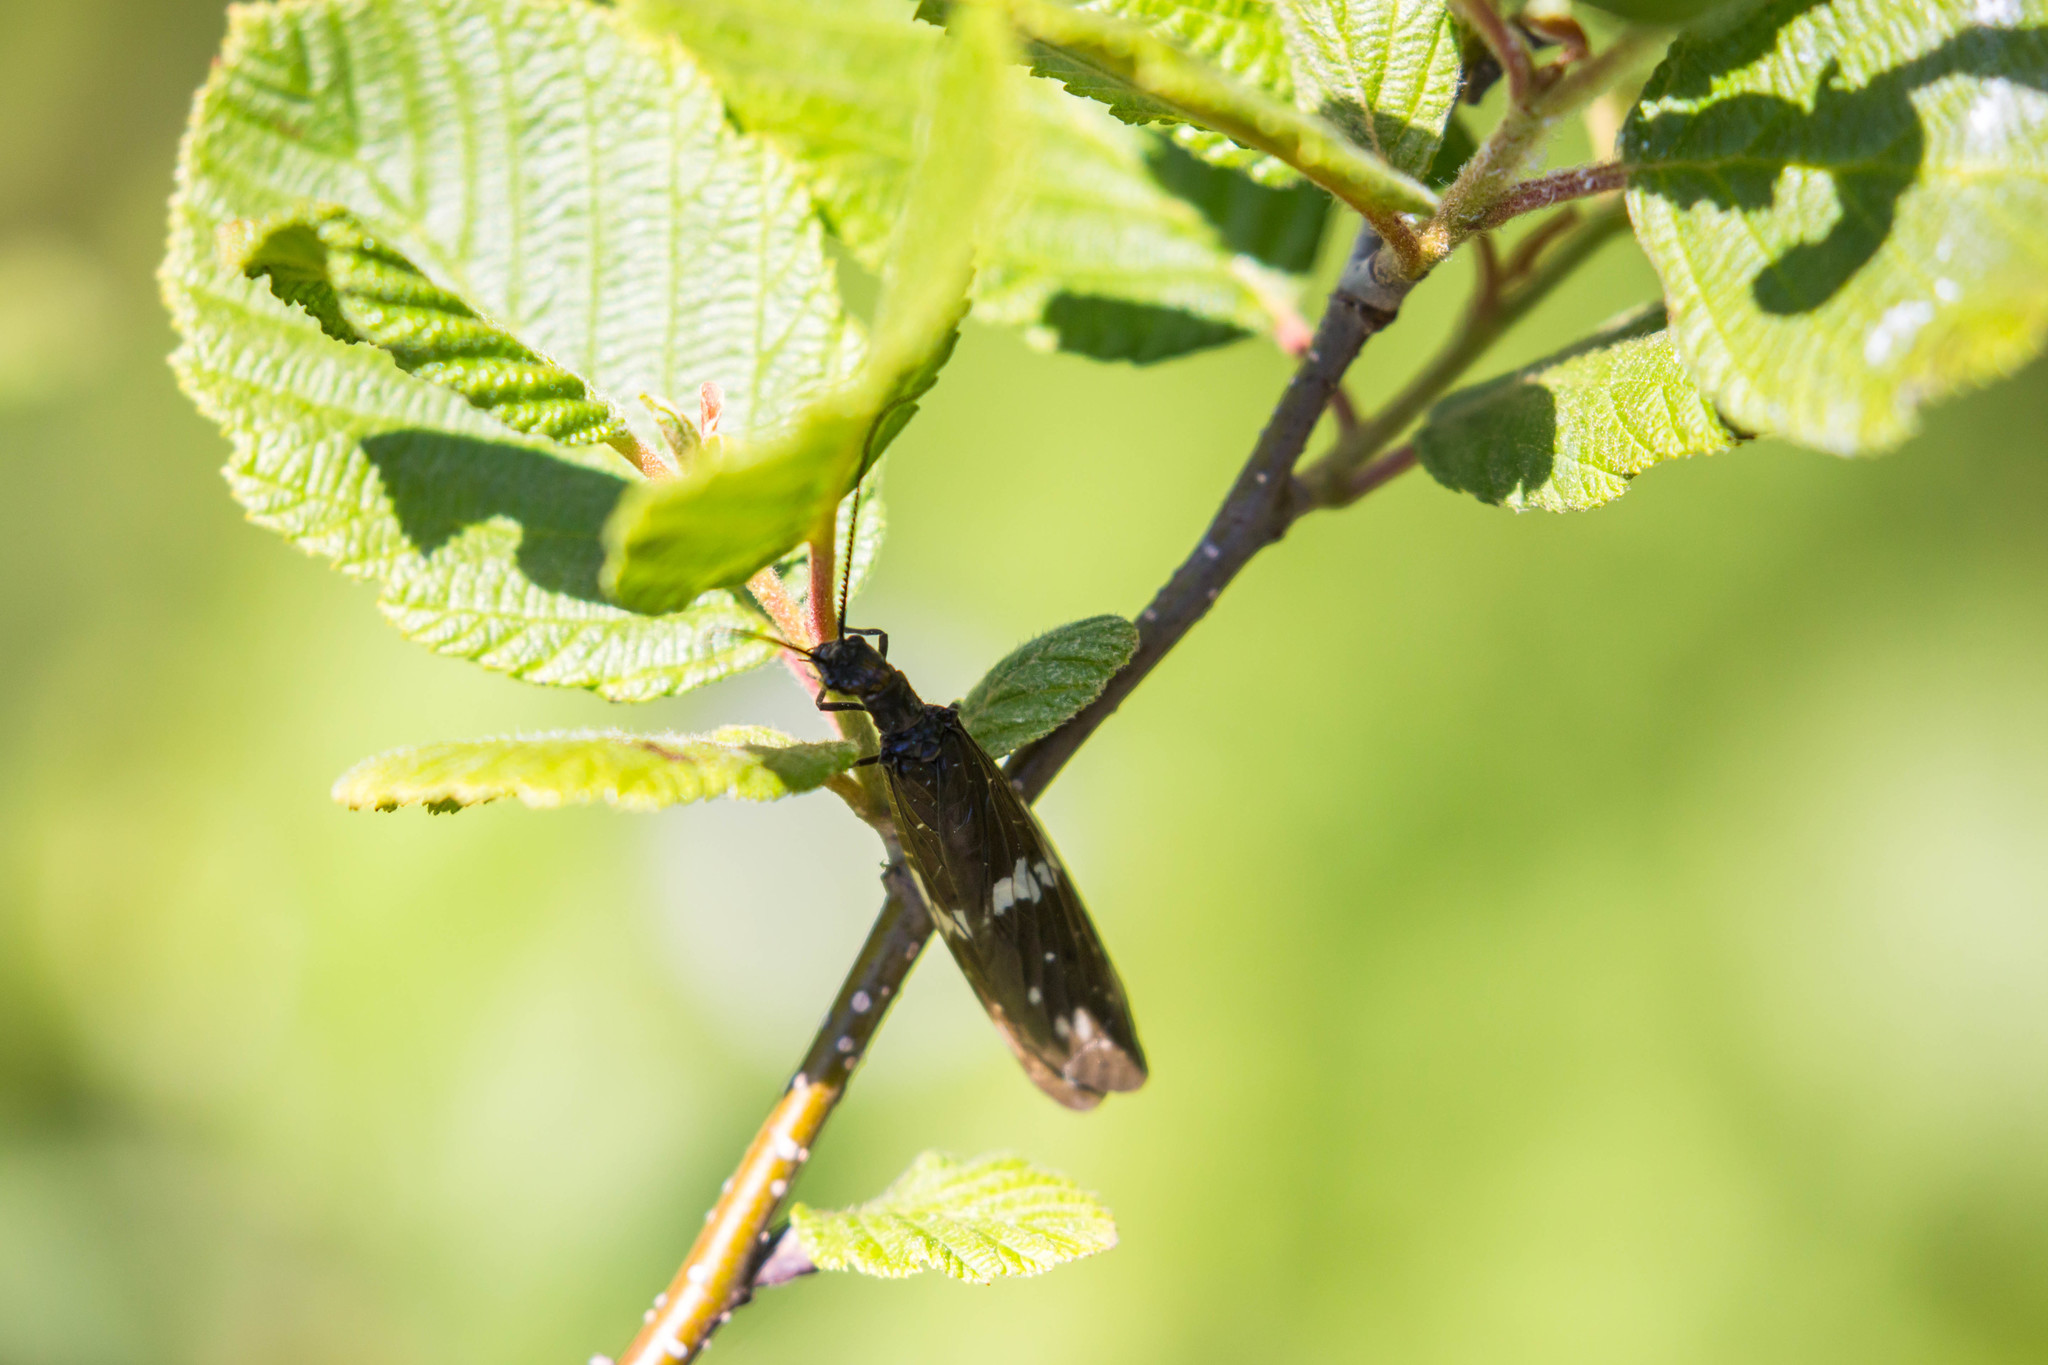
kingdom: Animalia
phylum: Arthropoda
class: Insecta
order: Megaloptera
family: Corydalidae
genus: Nigronia
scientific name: Nigronia serricornis
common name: Serrate dark fishfly
